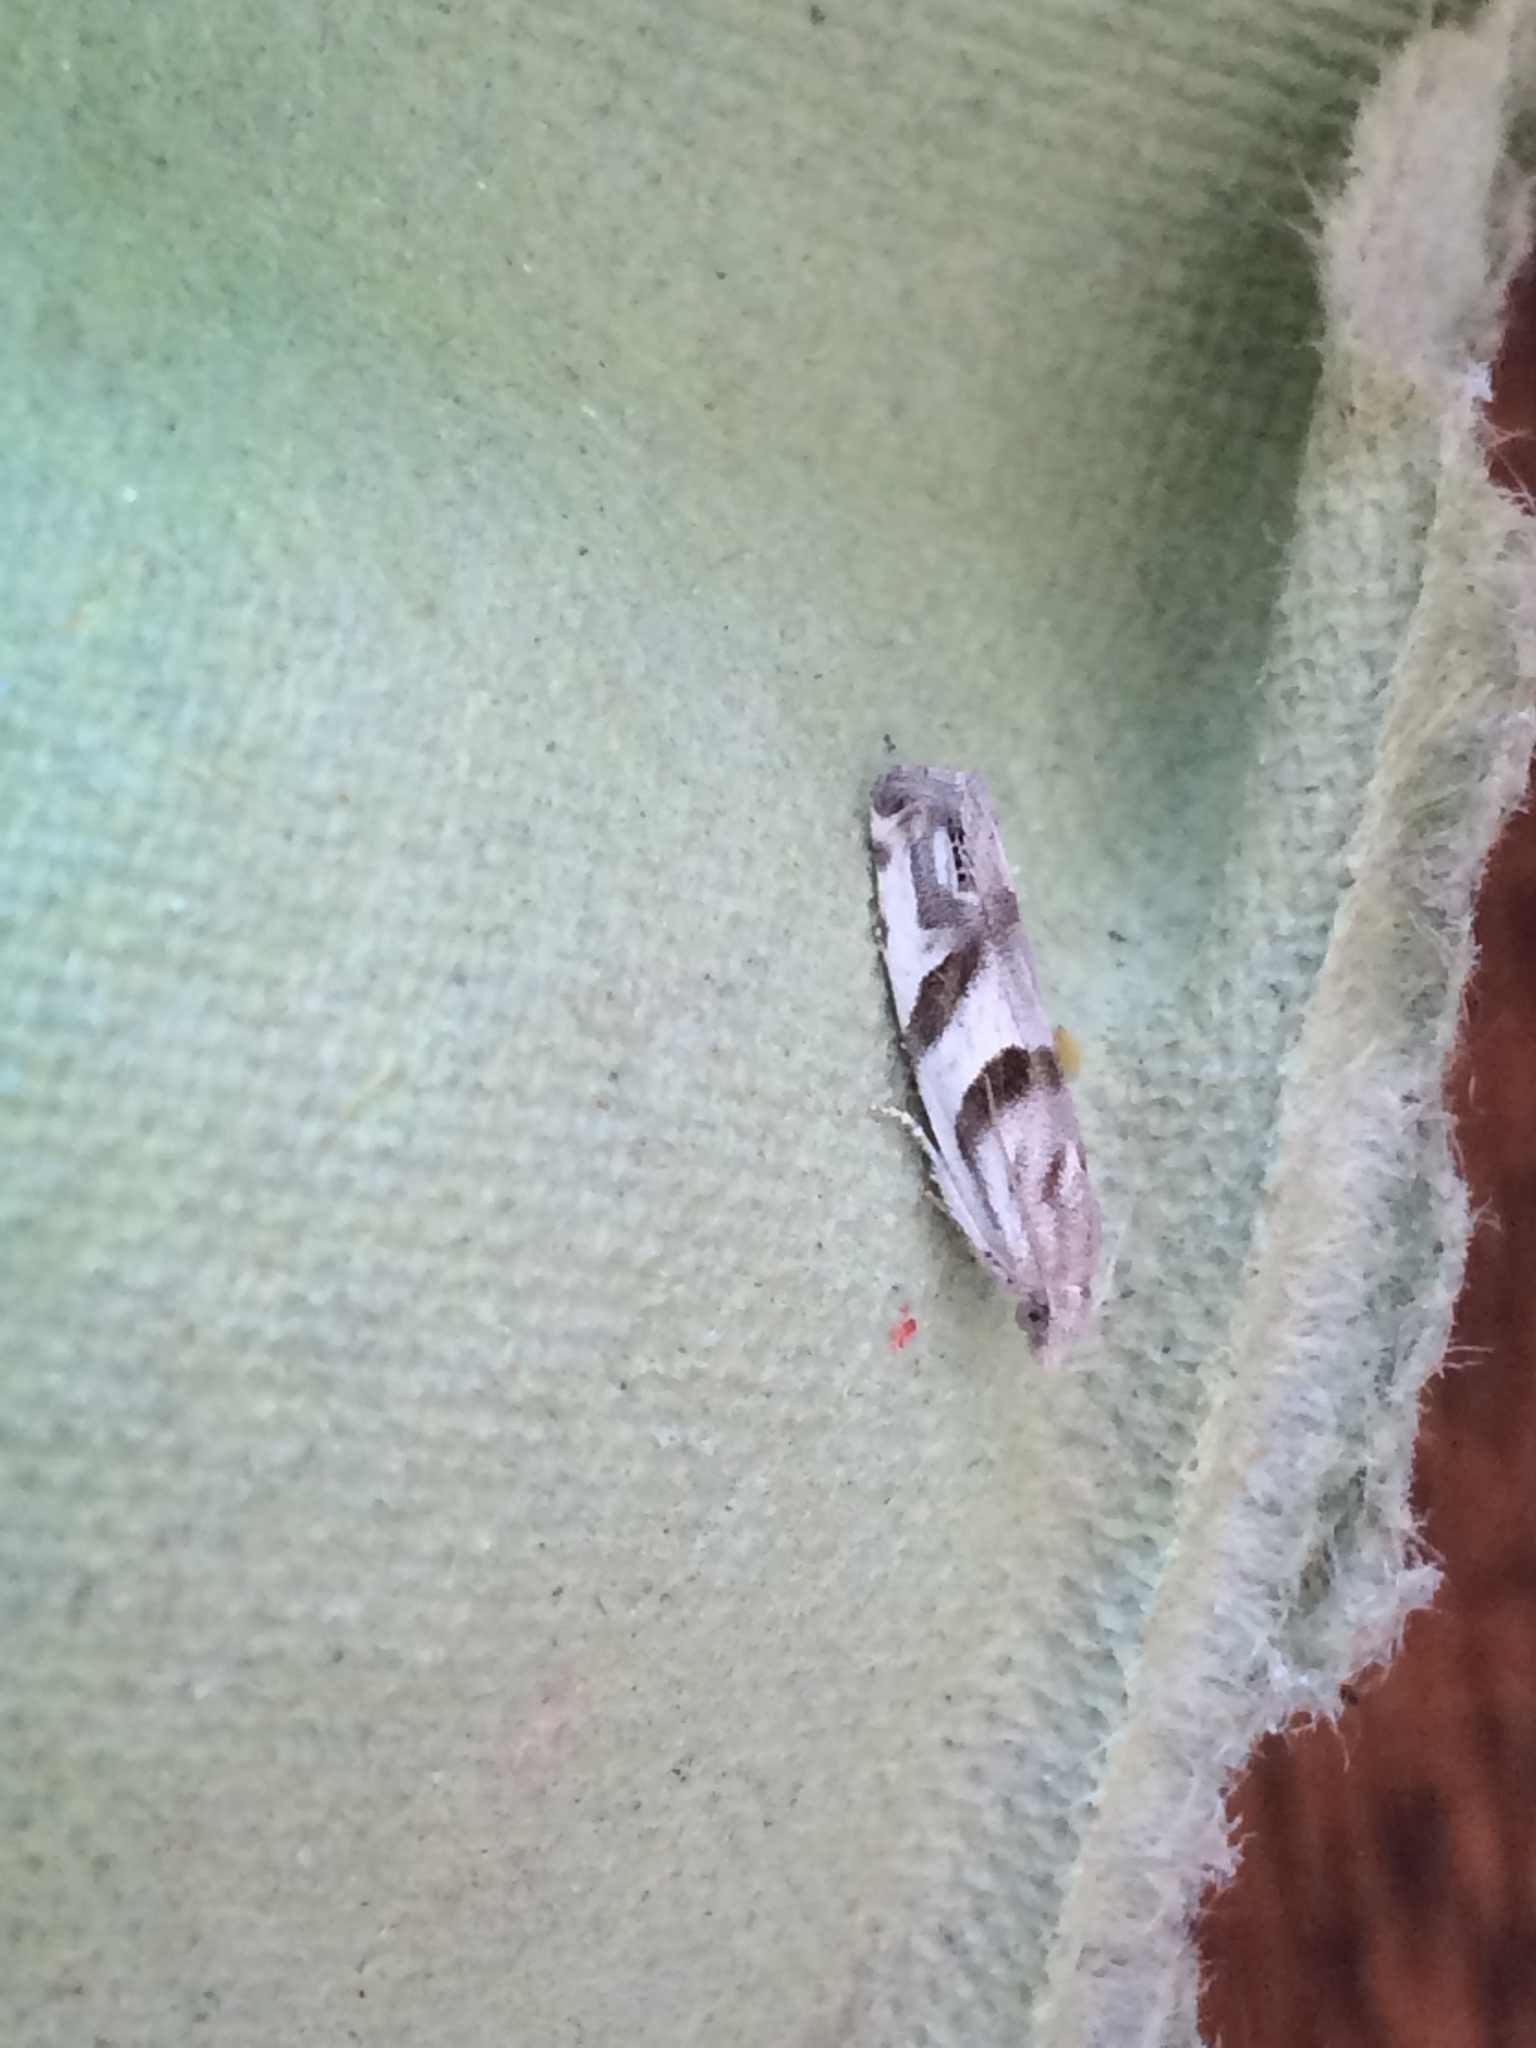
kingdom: Animalia
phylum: Arthropoda
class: Insecta
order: Lepidoptera
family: Tortricidae
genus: Eucosma
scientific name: Eucosma pupillana
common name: Eyed bell
